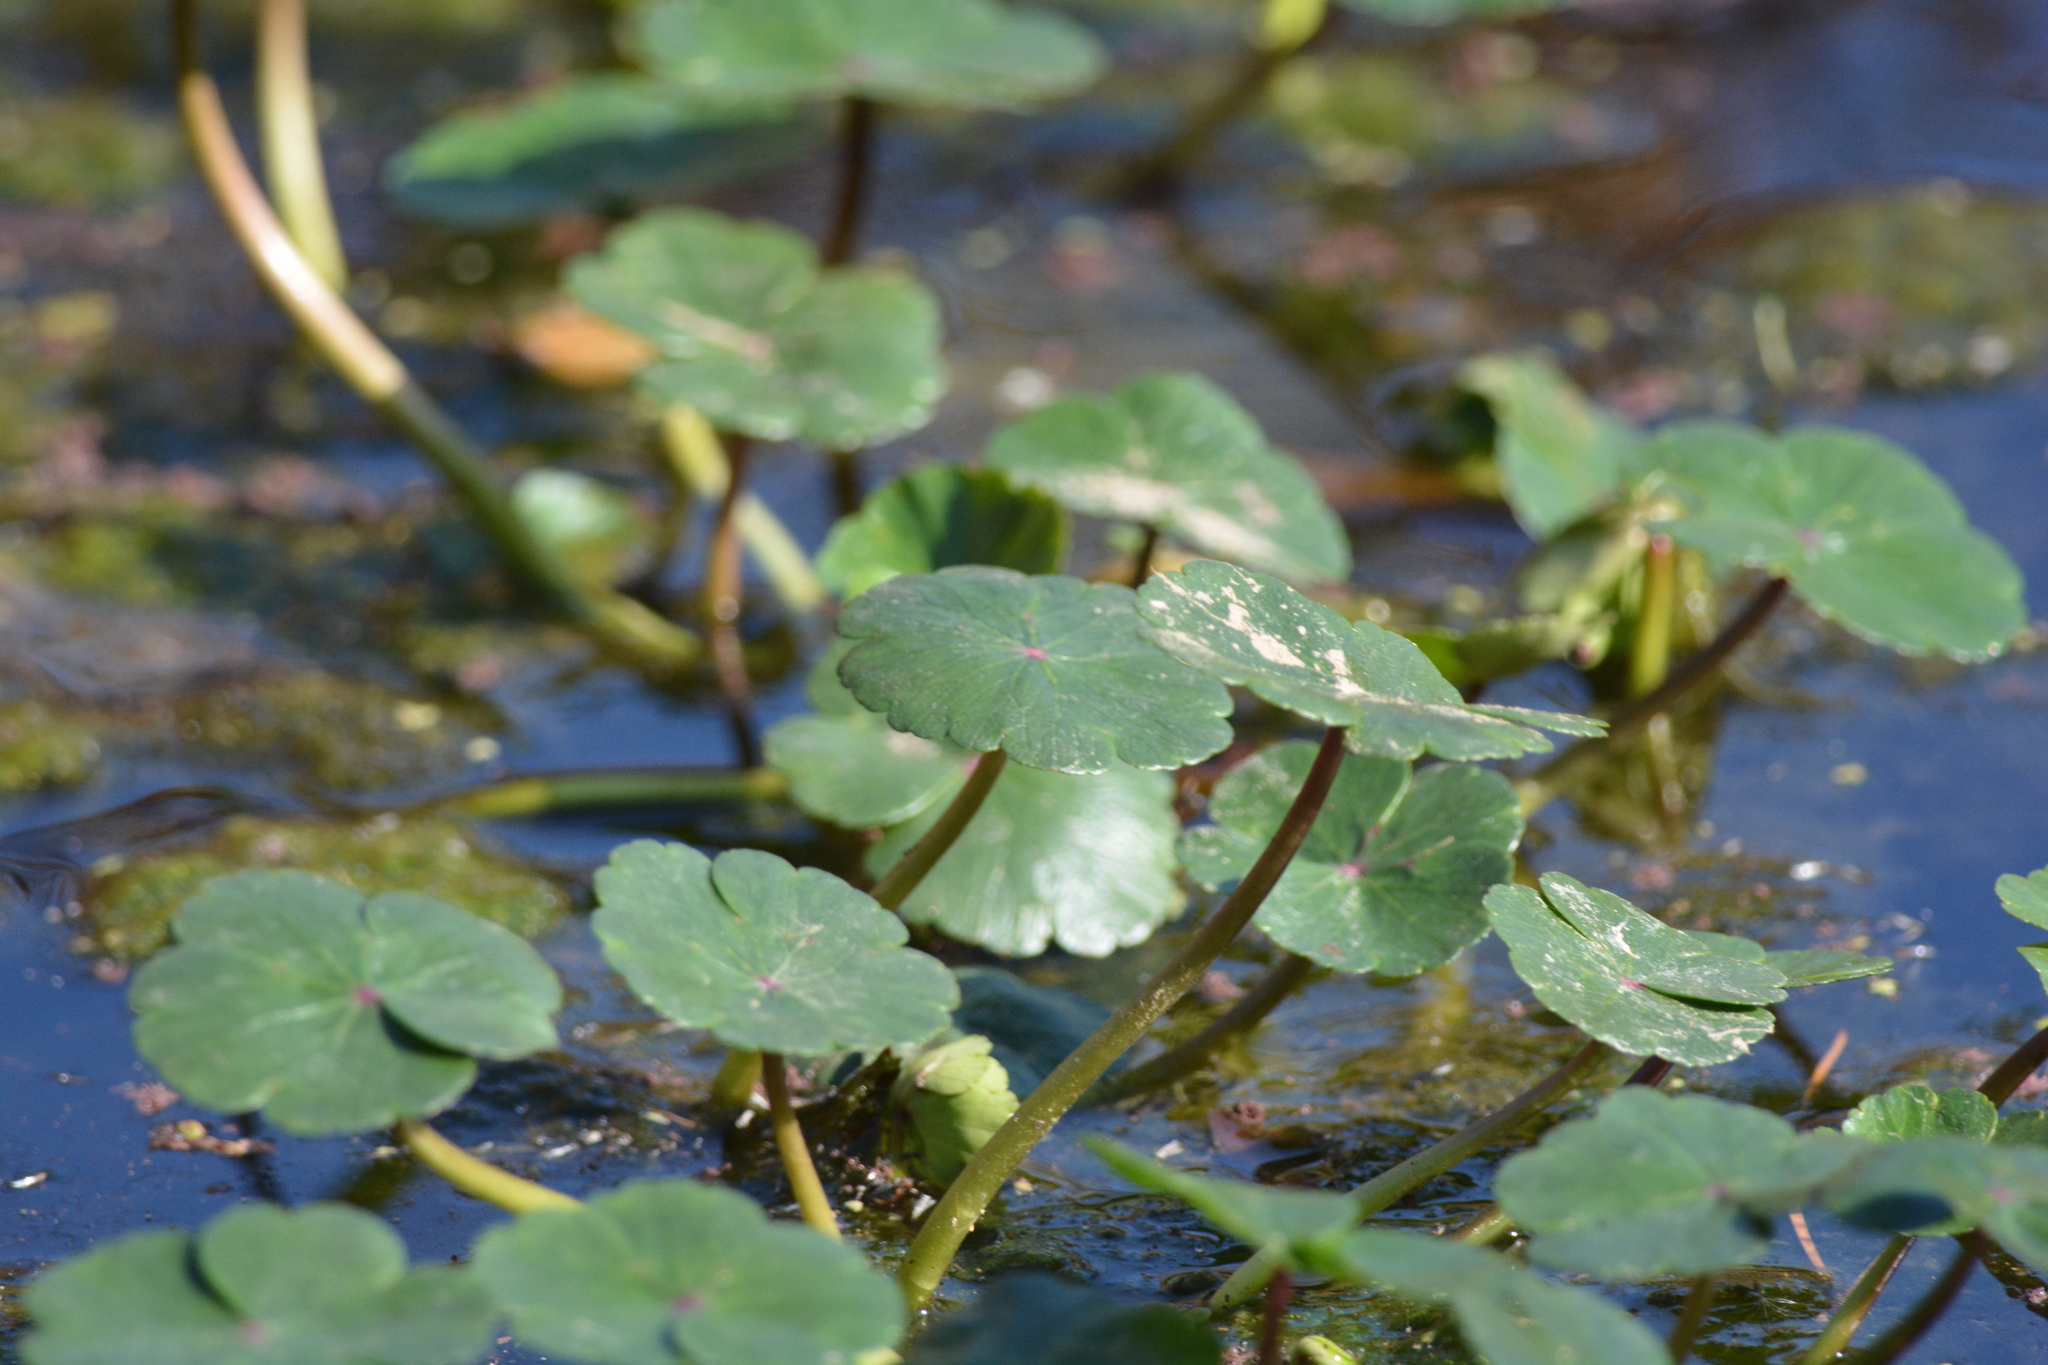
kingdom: Plantae
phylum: Tracheophyta
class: Magnoliopsida
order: Apiales
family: Araliaceae
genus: Hydrocotyle
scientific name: Hydrocotyle ranunculoides
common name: Floating pennywort
